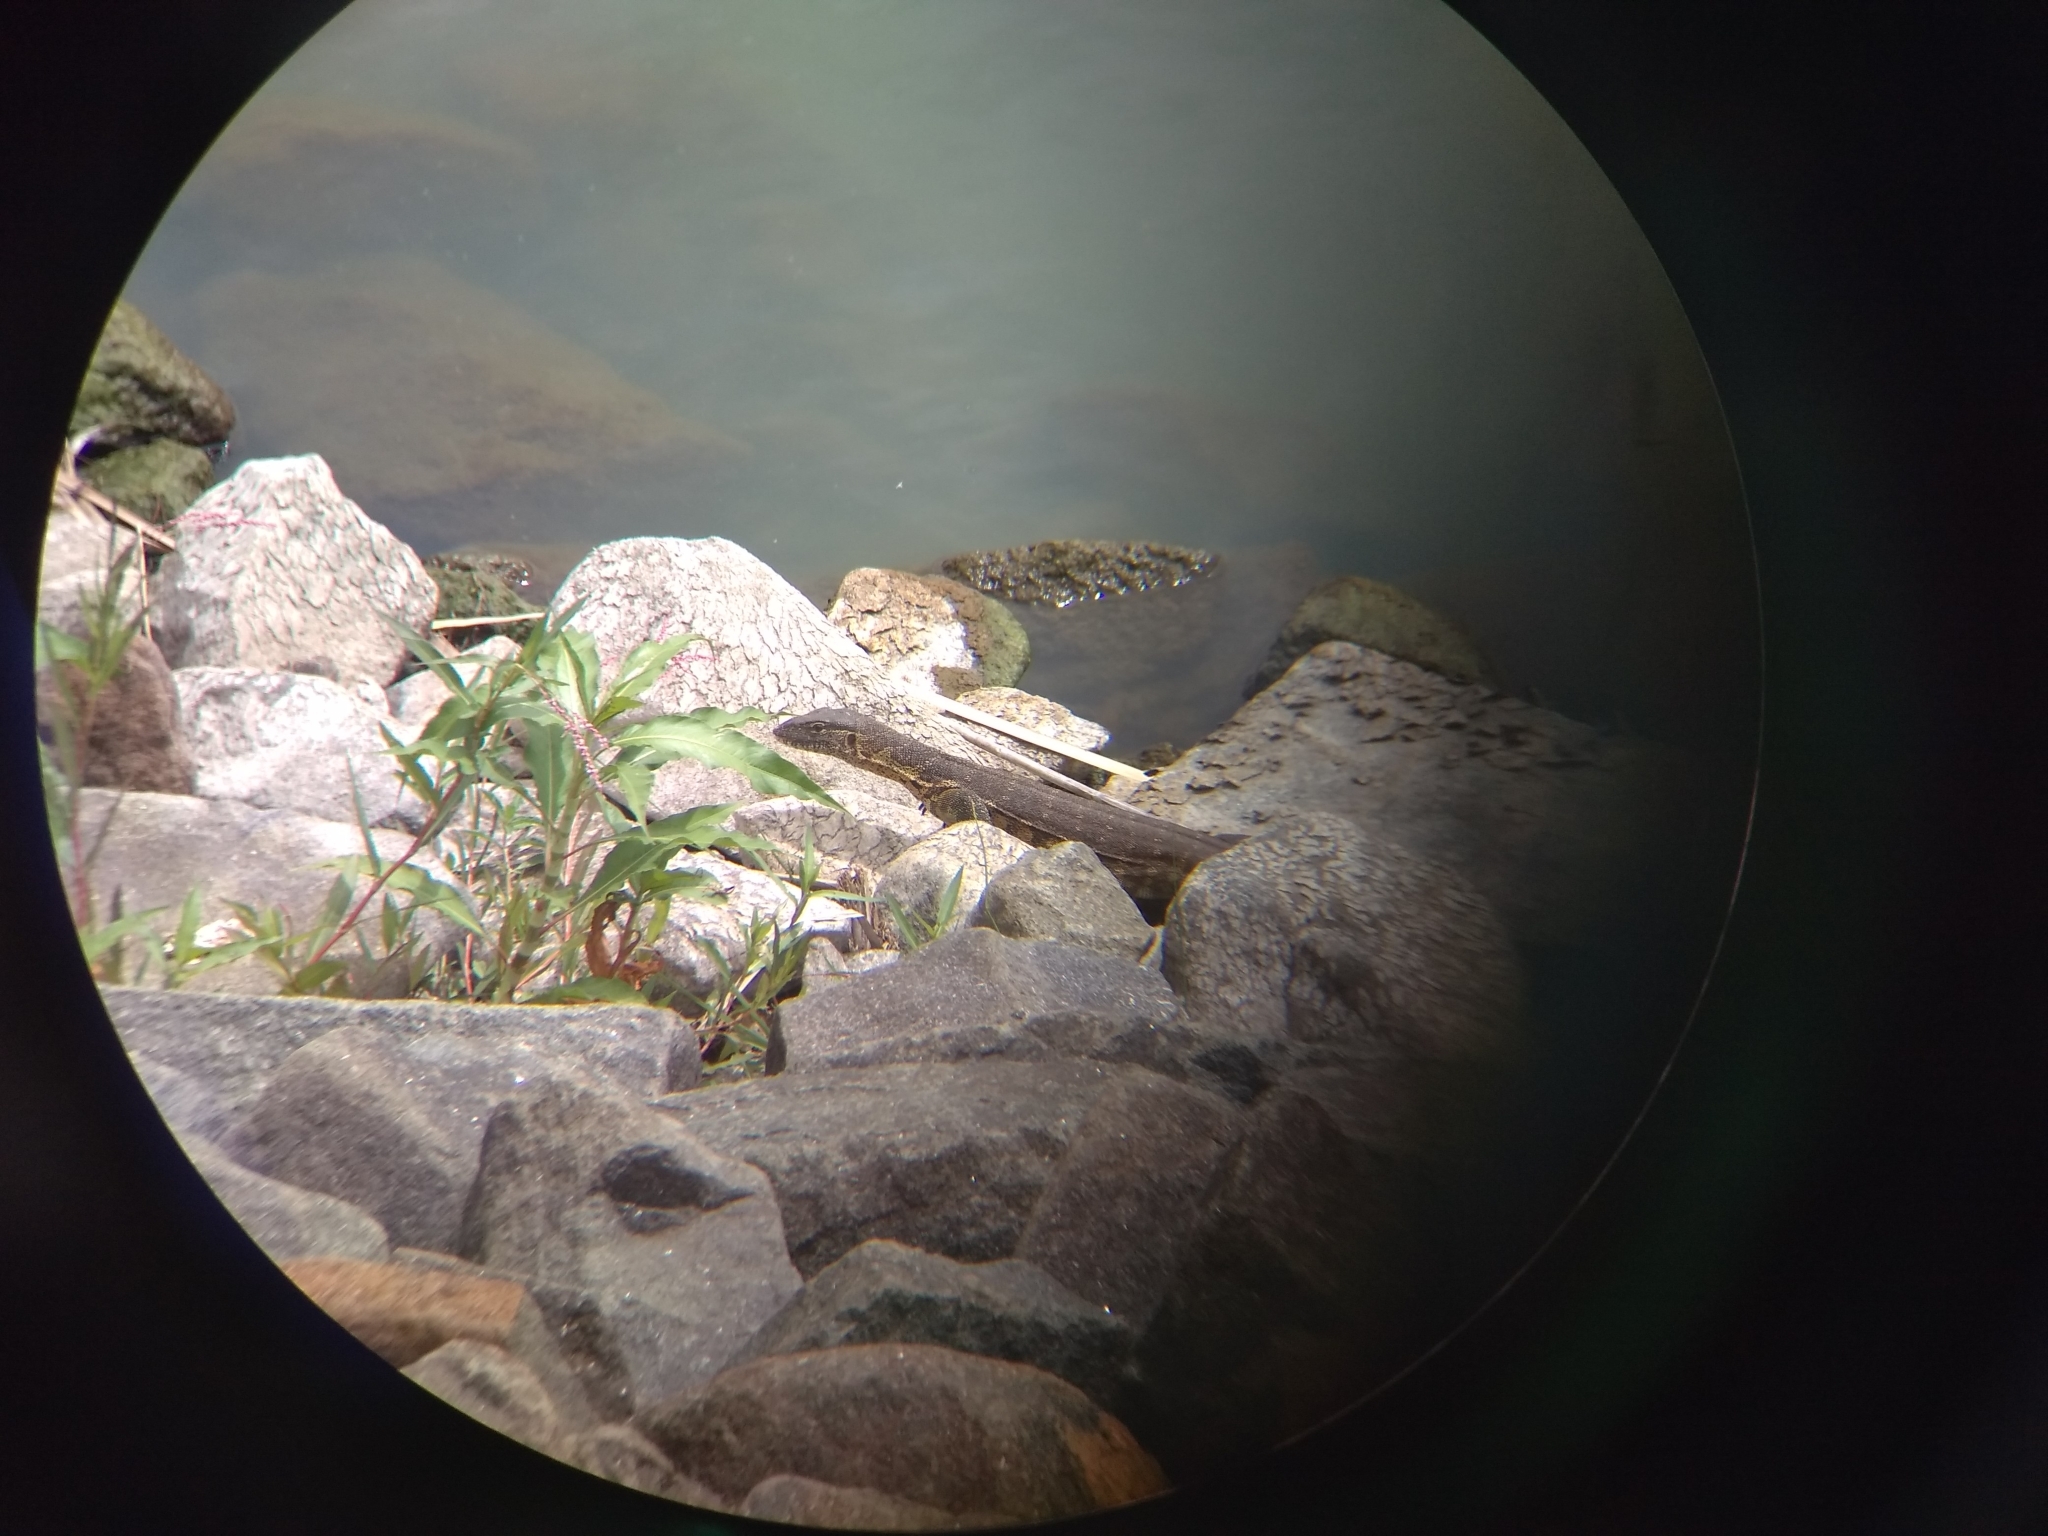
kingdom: Animalia
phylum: Chordata
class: Squamata
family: Varanidae
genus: Varanus
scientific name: Varanus niloticus
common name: Nile monitor
